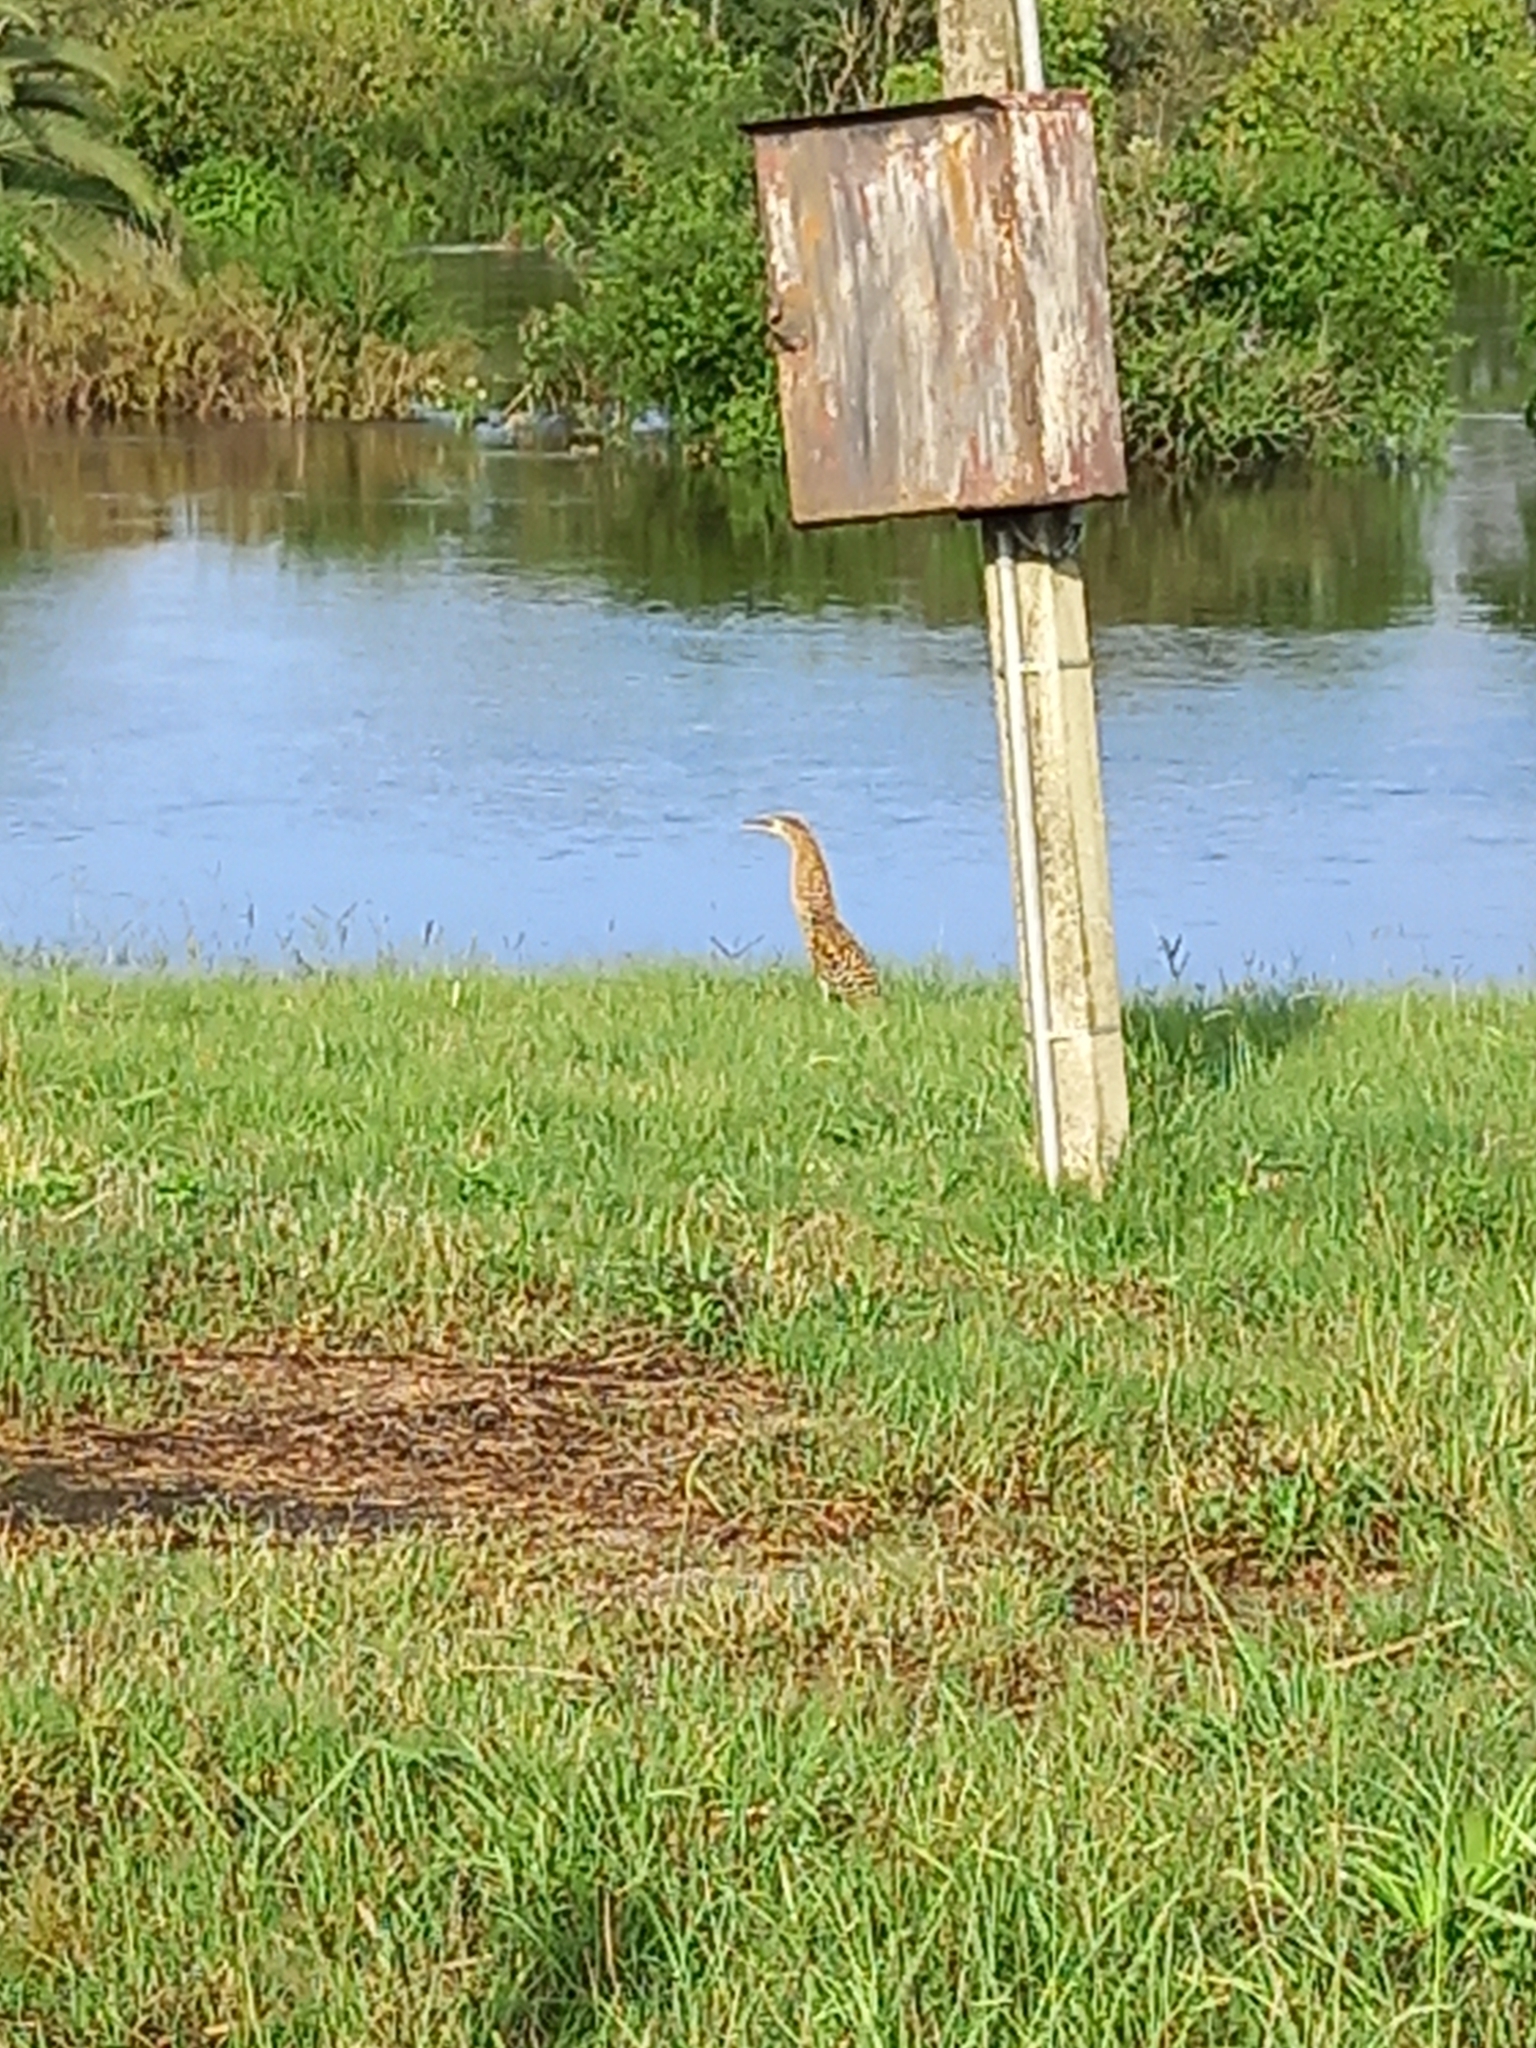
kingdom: Animalia
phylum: Chordata
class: Aves
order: Pelecaniformes
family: Ardeidae
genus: Tigrisoma
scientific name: Tigrisoma lineatum
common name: Rufescent tiger-heron
